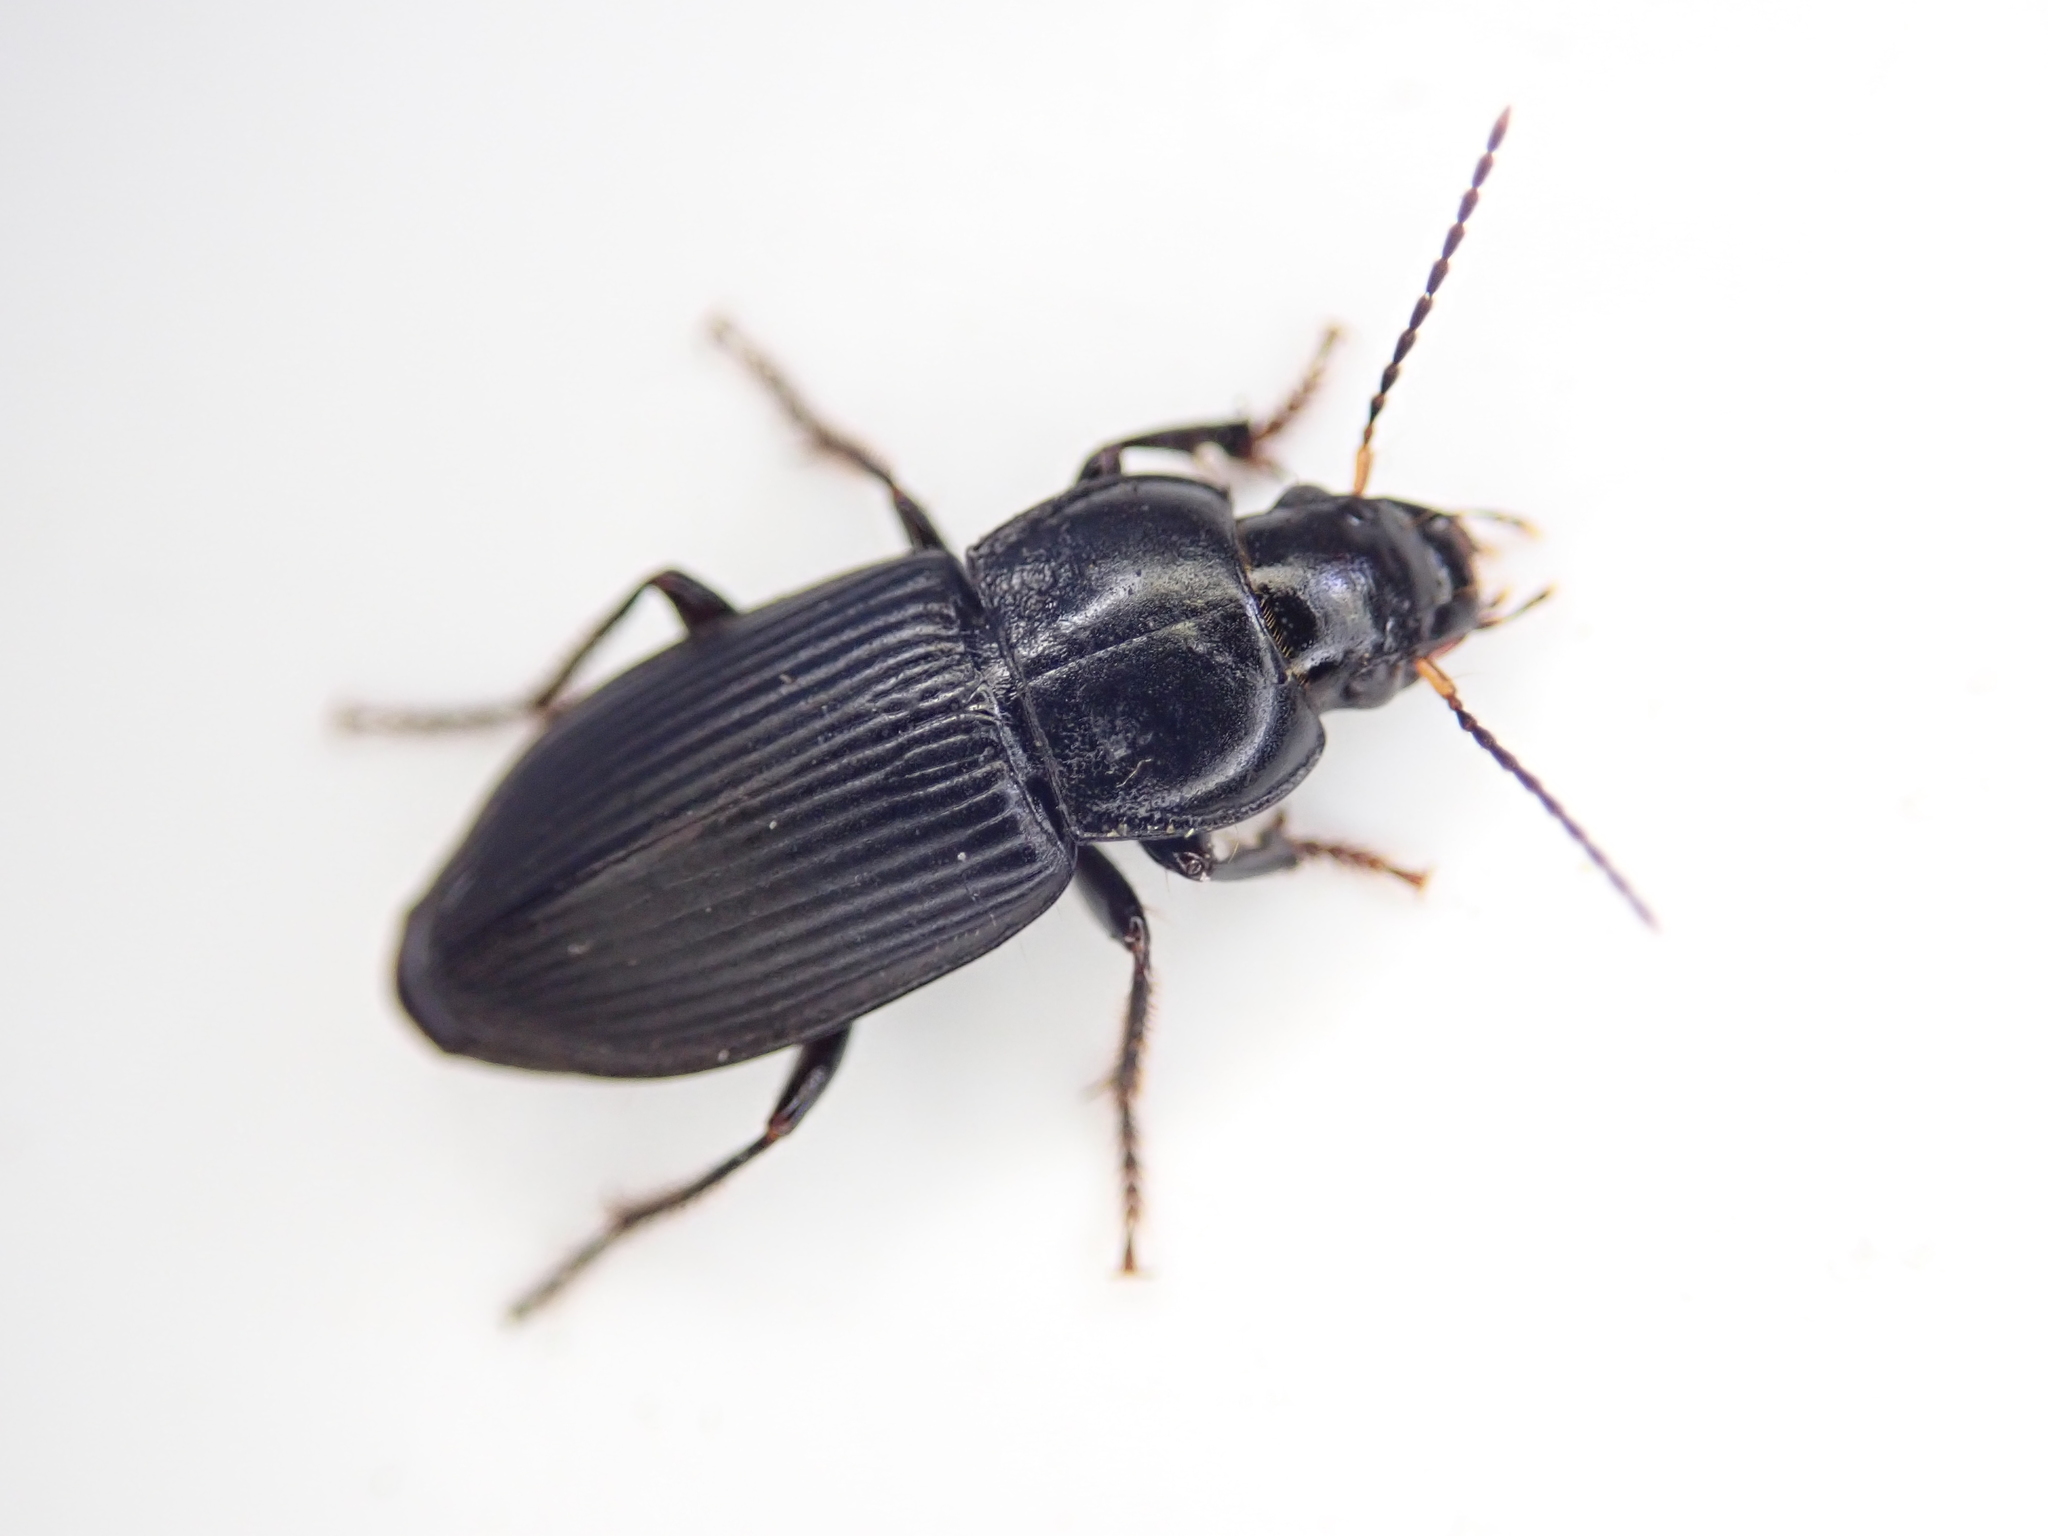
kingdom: Animalia
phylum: Arthropoda
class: Insecta
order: Coleoptera
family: Carabidae
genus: Anisodactylus
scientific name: Anisodactylus binotatus
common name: Two-marked harp ground beetle
